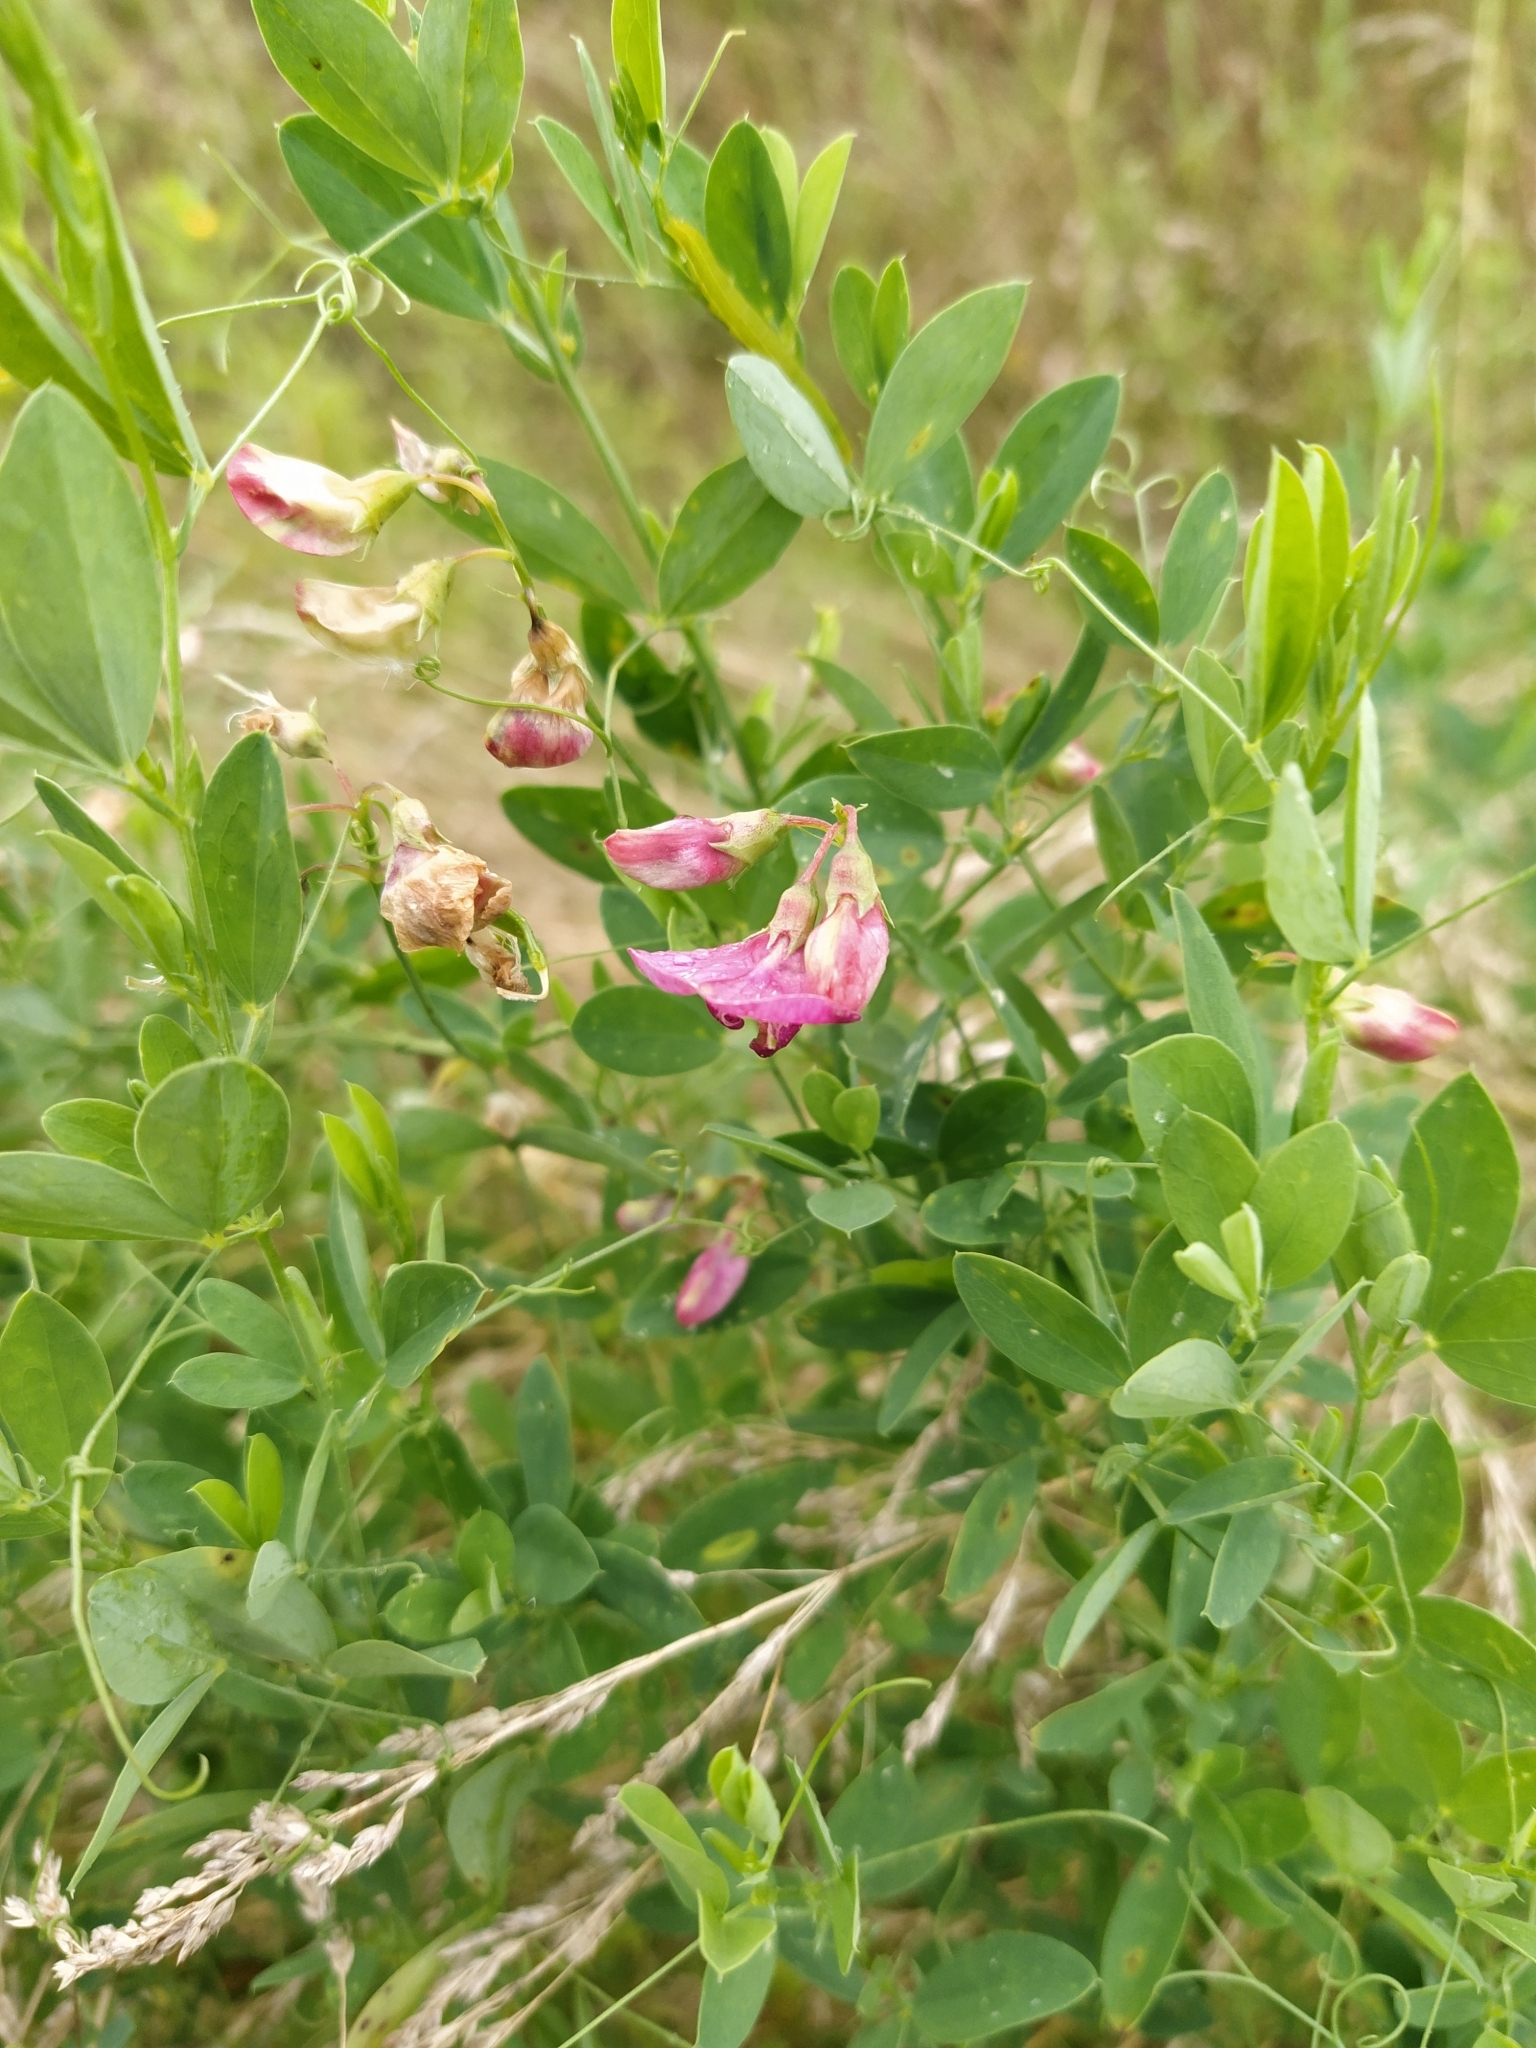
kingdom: Plantae
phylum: Tracheophyta
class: Magnoliopsida
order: Fabales
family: Fabaceae
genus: Lathyrus
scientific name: Lathyrus tuberosus
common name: Tuberous pea
